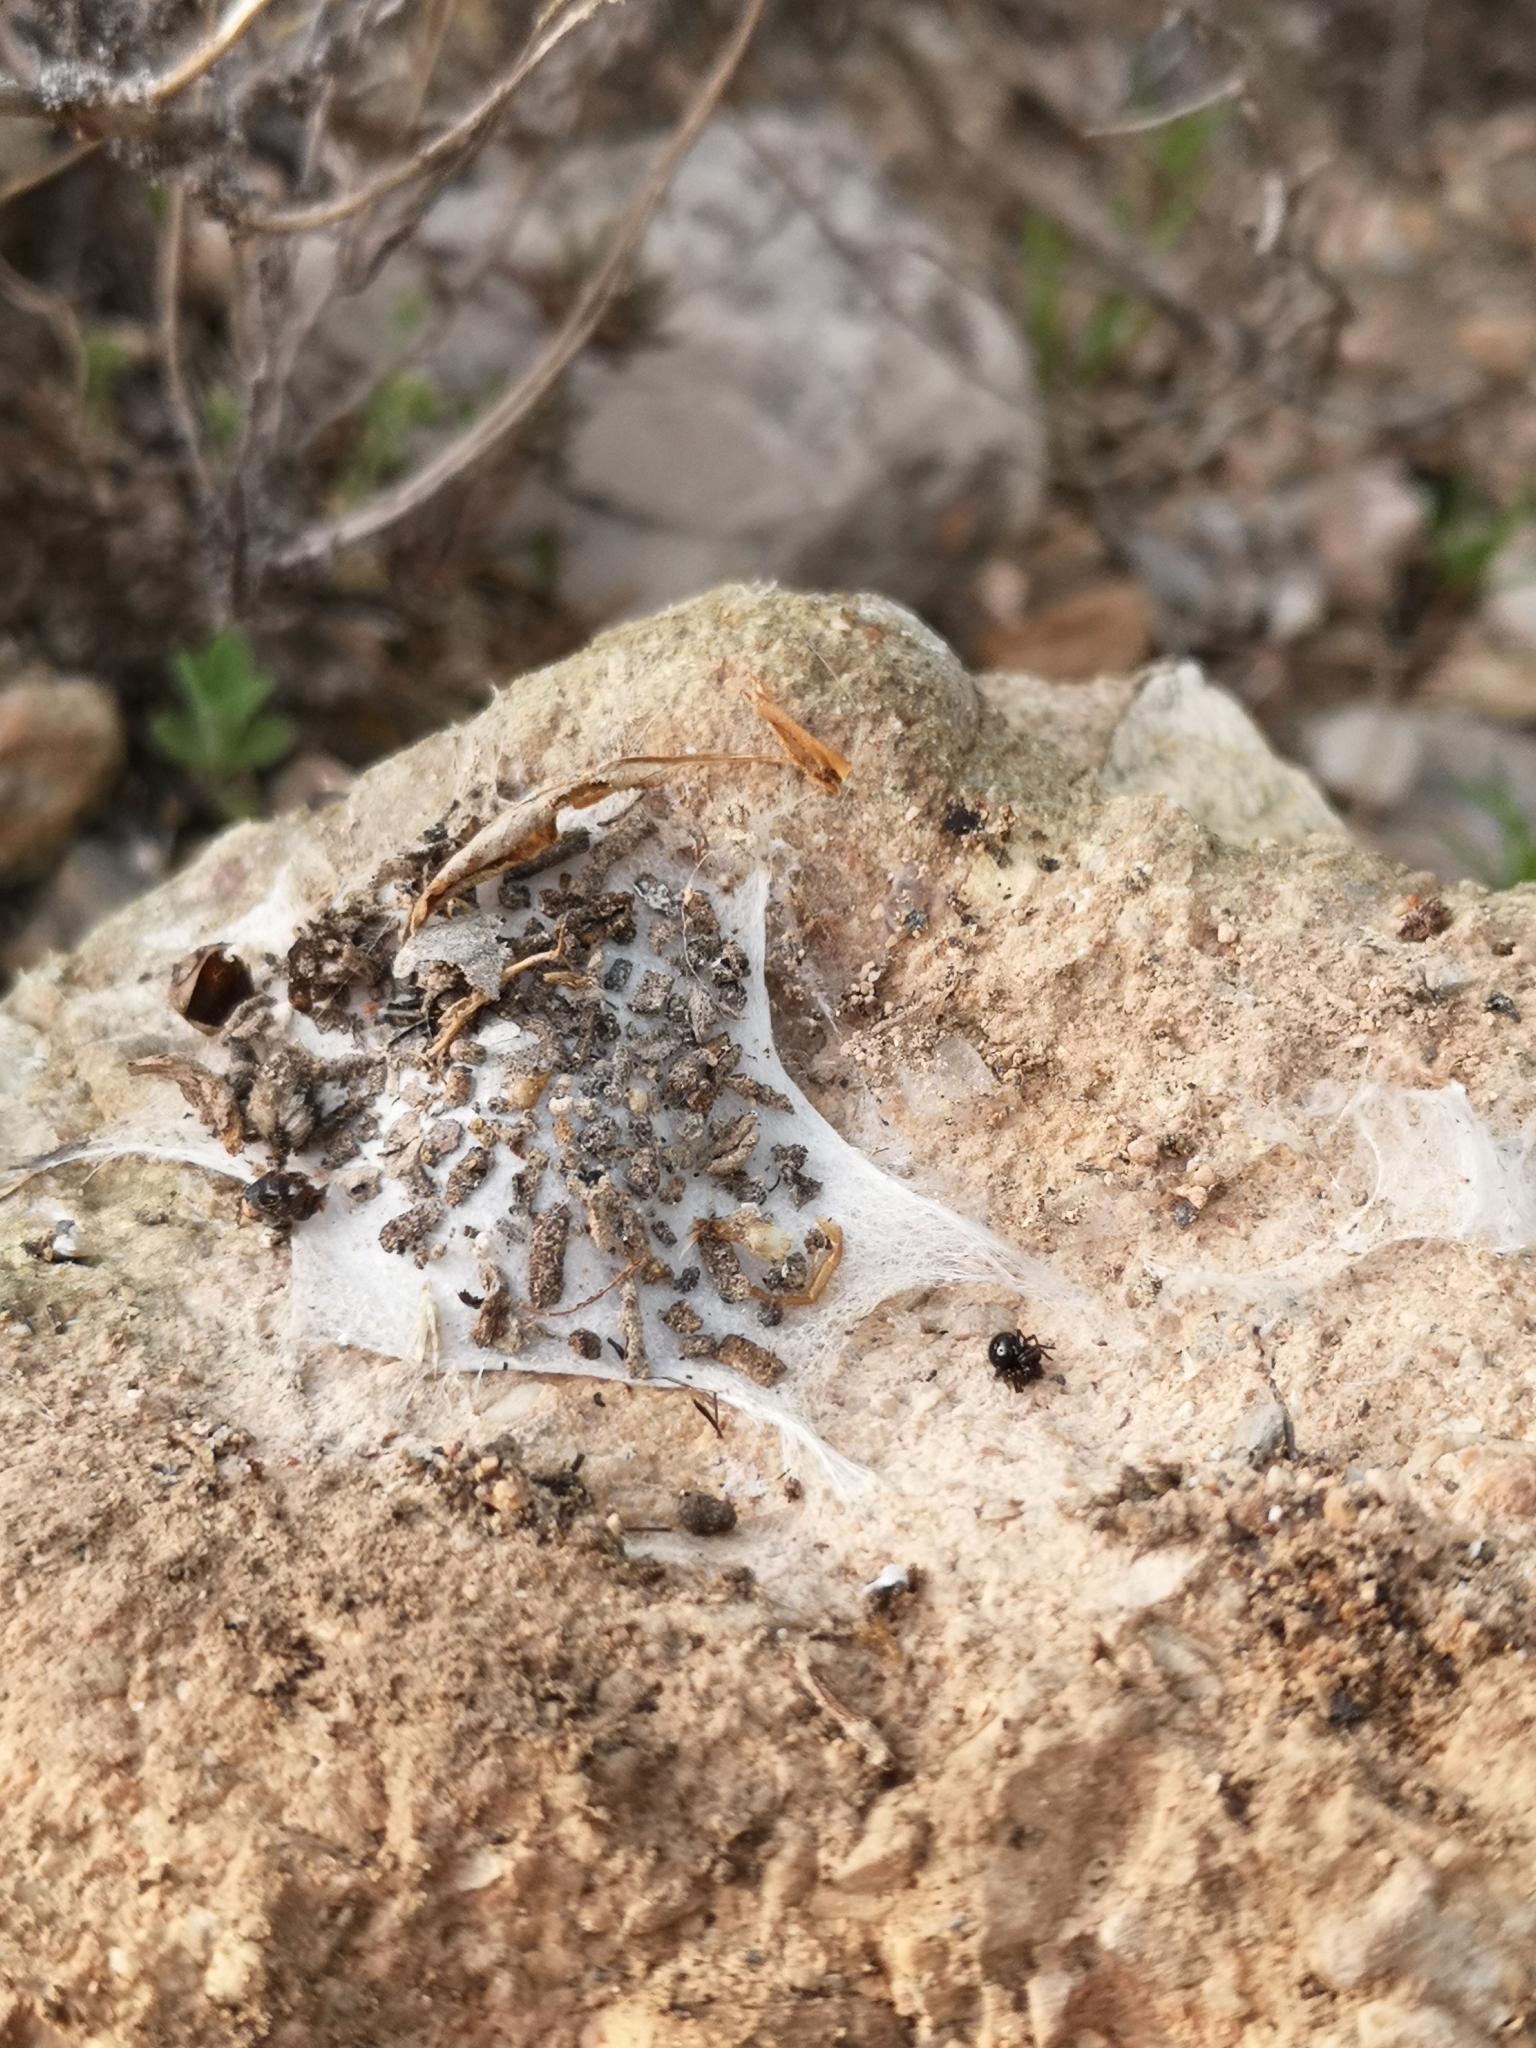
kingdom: Animalia
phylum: Arthropoda
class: Arachnida
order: Araneae
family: Oecobiidae
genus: Uroctea
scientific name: Uroctea durandi
